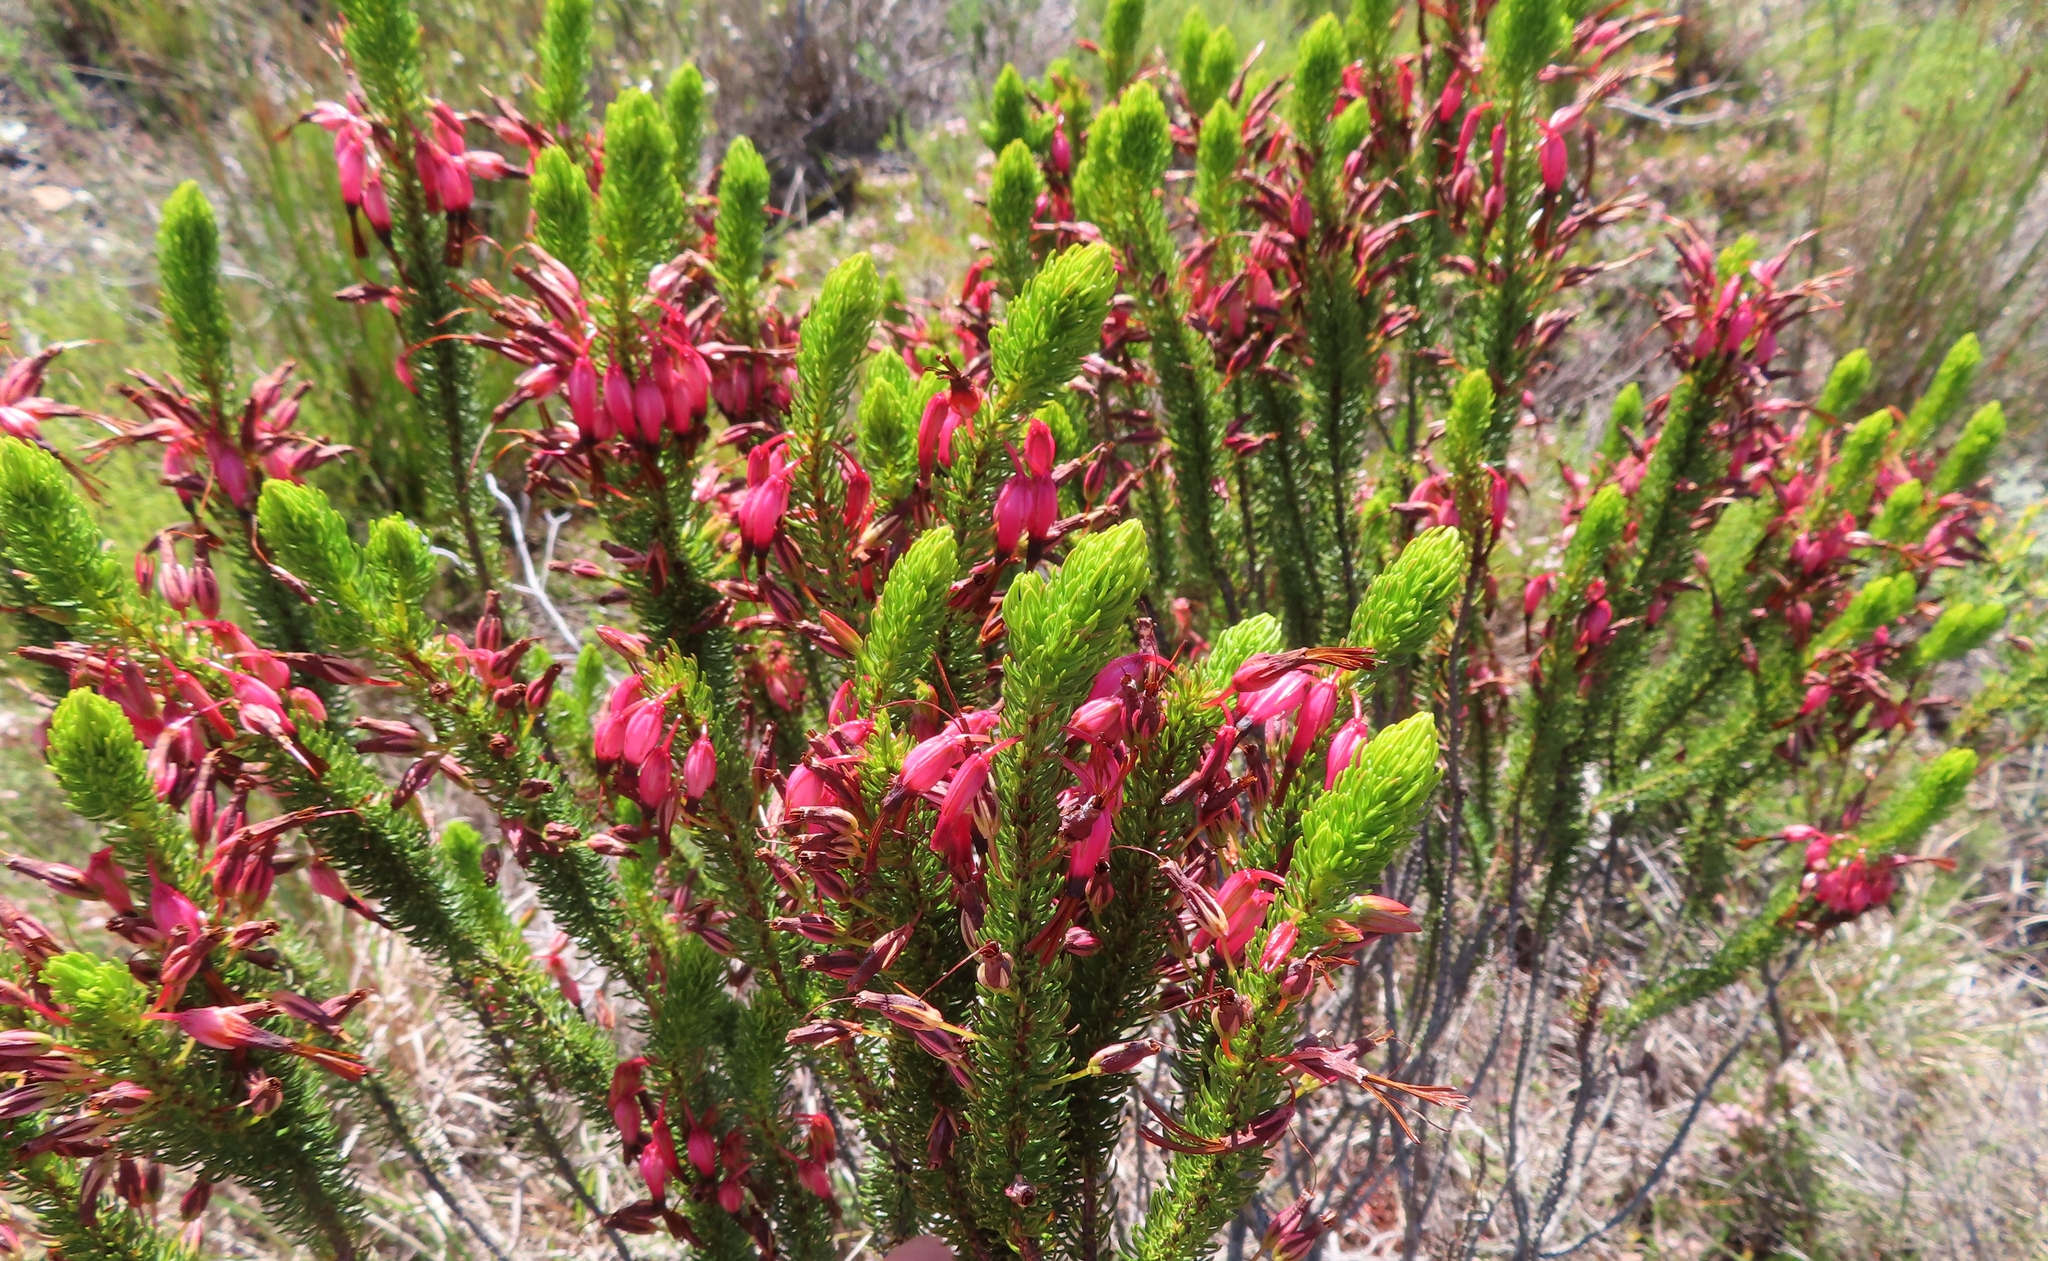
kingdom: Plantae
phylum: Tracheophyta
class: Magnoliopsida
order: Ericales
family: Ericaceae
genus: Erica
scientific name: Erica plukenetii
